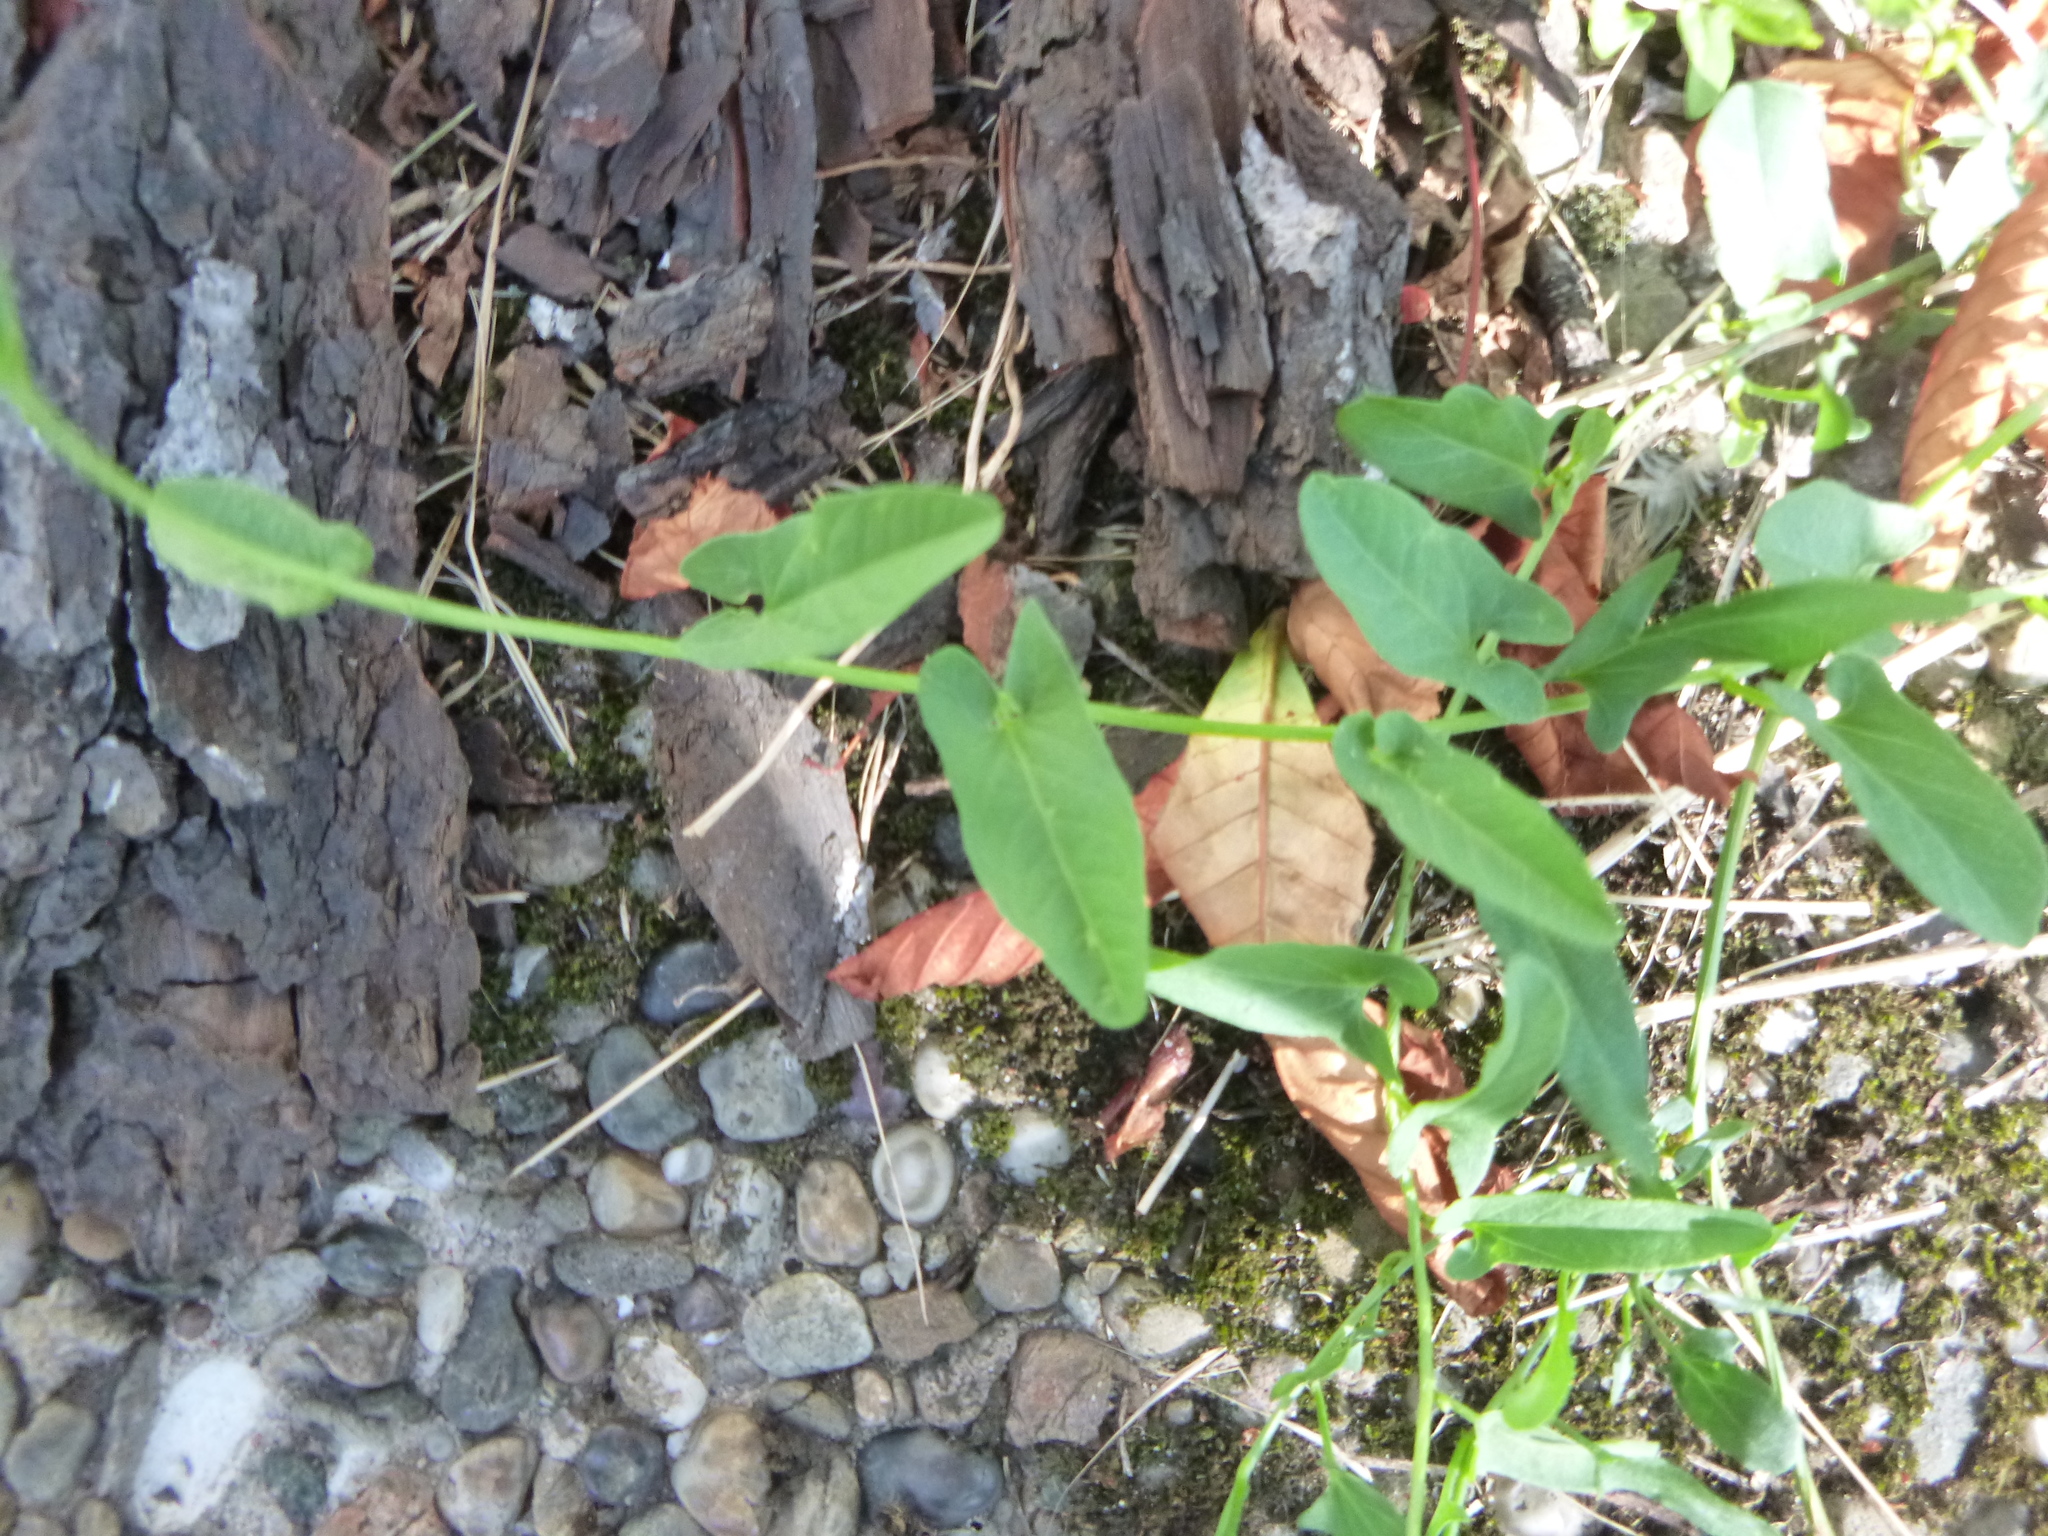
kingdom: Plantae
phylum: Tracheophyta
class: Magnoliopsida
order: Solanales
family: Convolvulaceae
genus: Convolvulus
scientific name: Convolvulus arvensis
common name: Field bindweed
